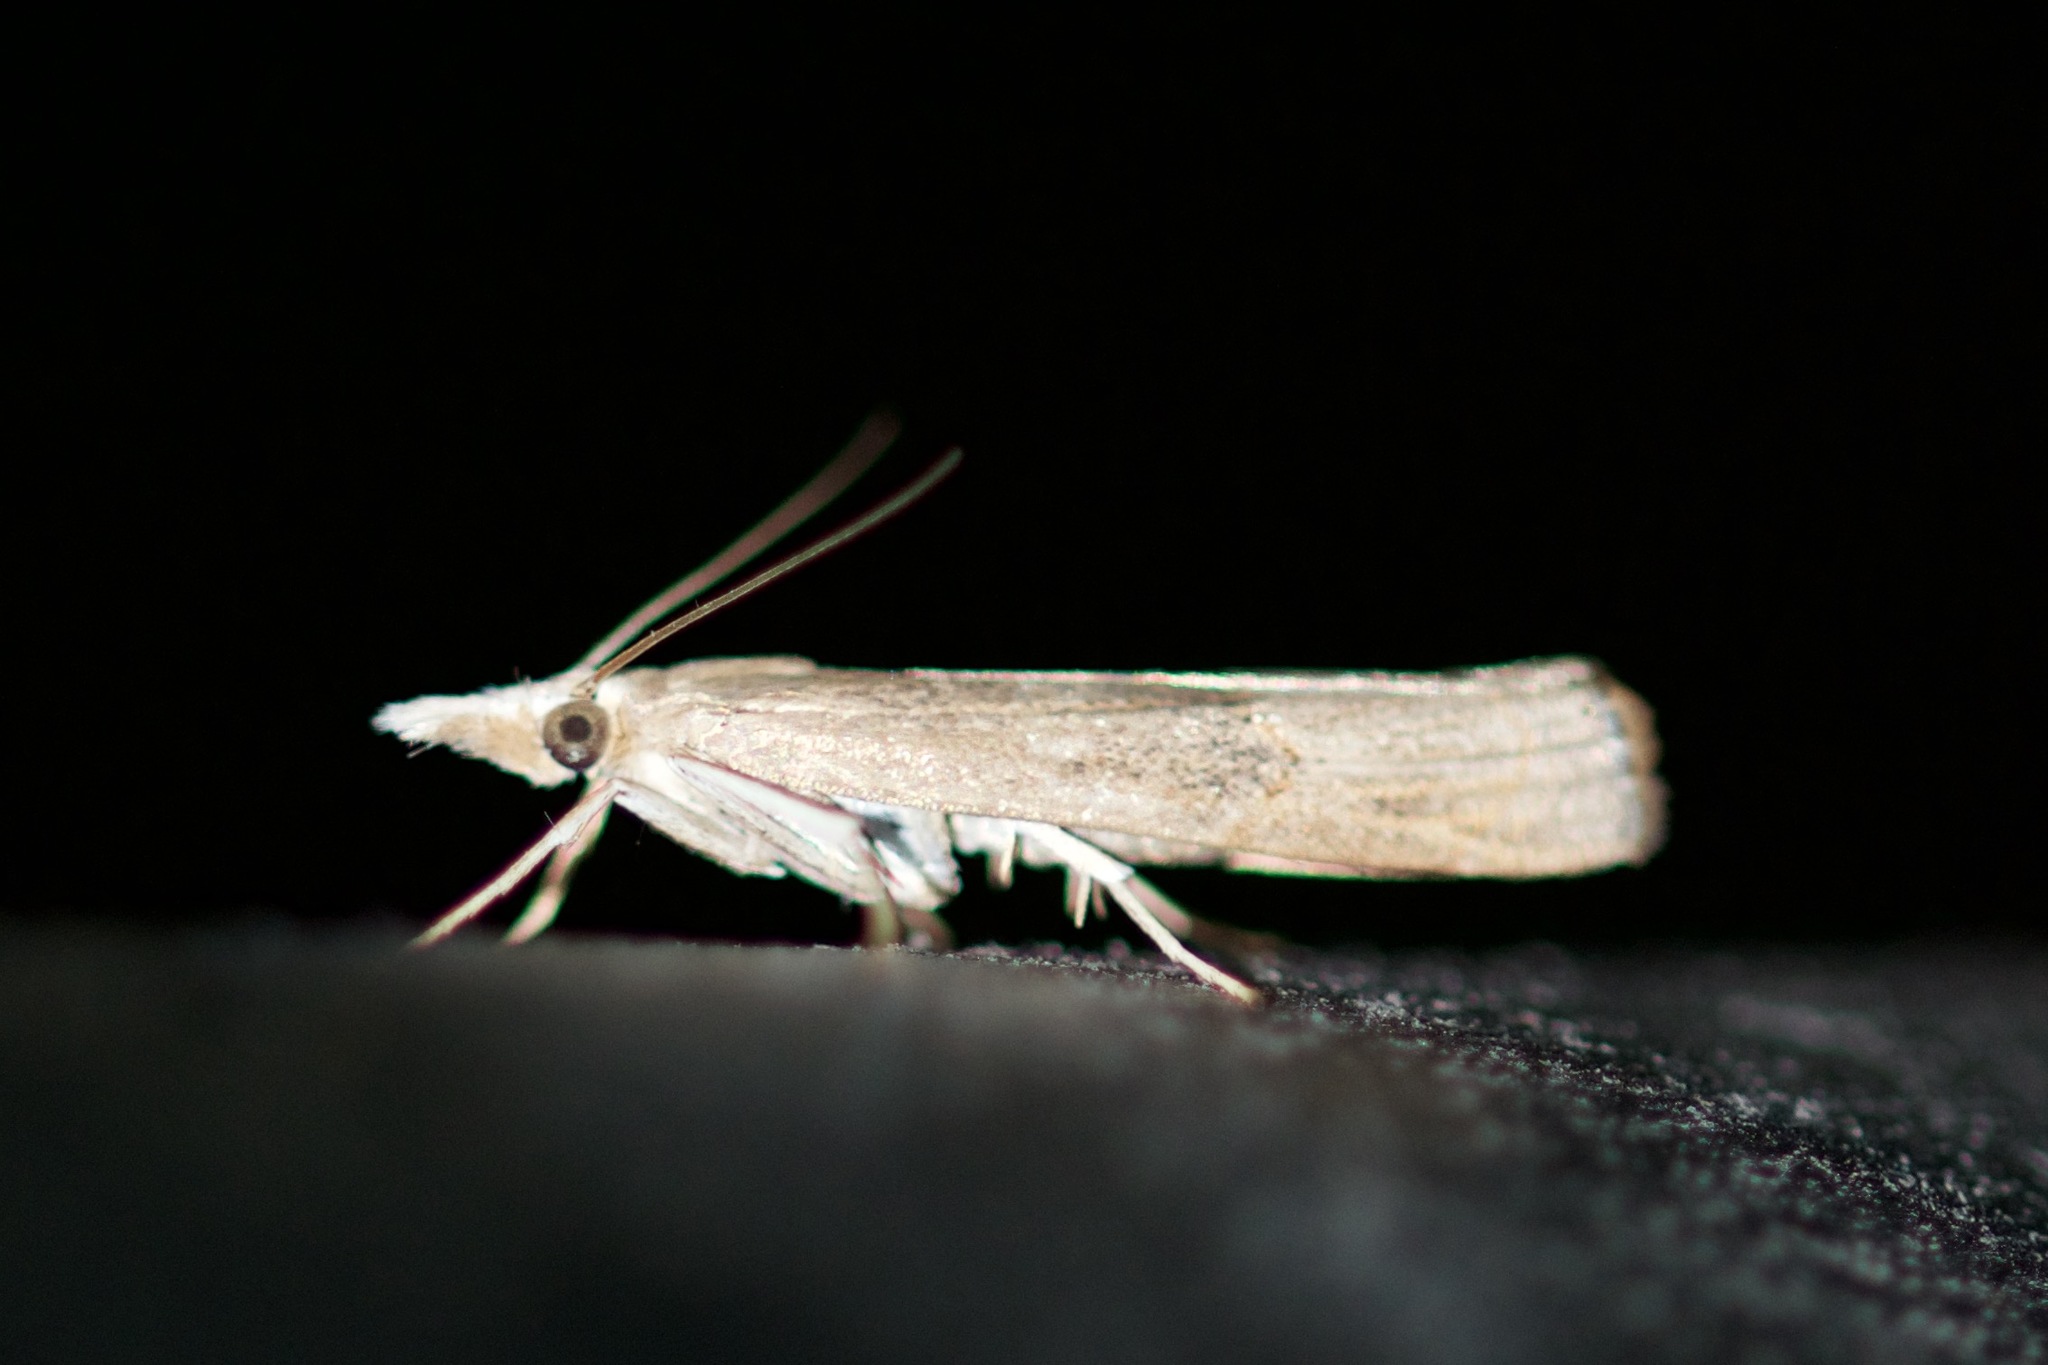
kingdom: Animalia
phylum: Arthropoda
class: Insecta
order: Lepidoptera
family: Crambidae
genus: Parapediasia
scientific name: Parapediasia teterellus
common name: Bluegrass webworm moth
